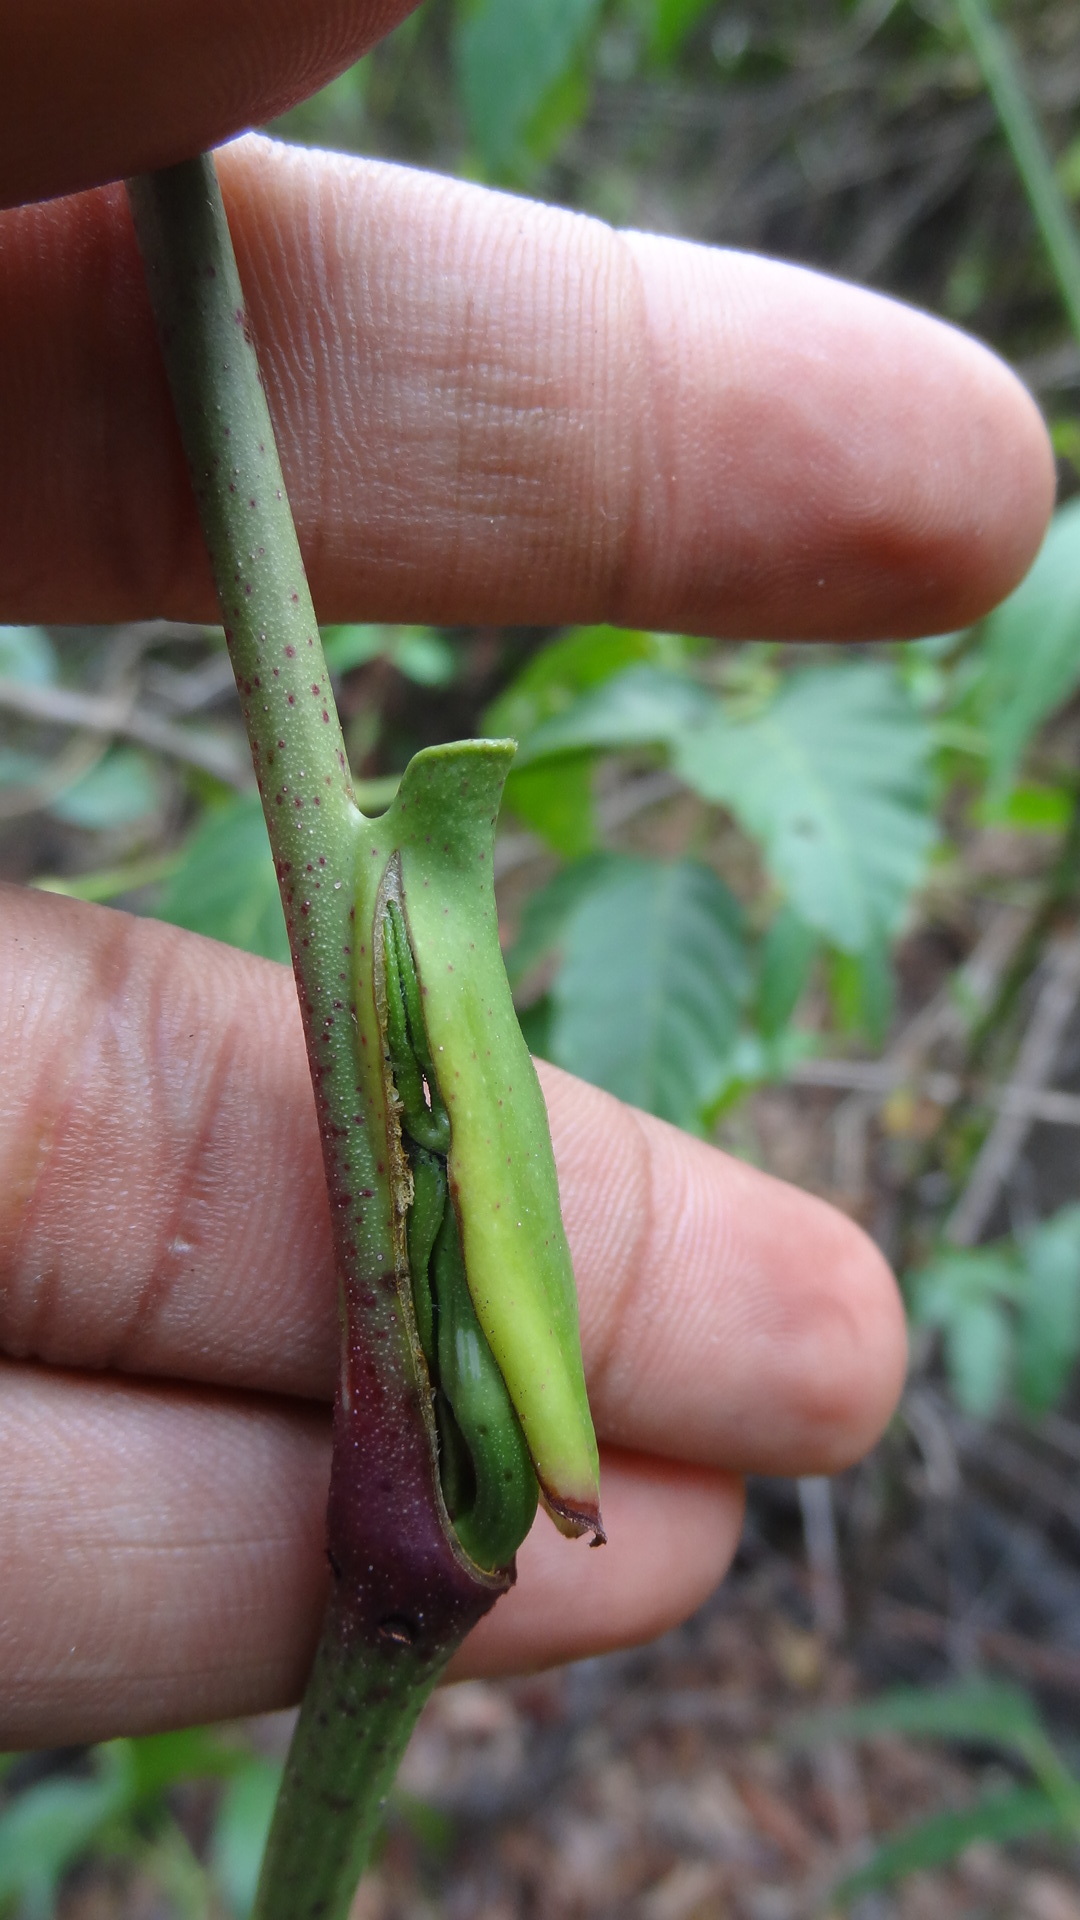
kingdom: Plantae
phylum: Tracheophyta
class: Magnoliopsida
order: Vitales
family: Vitaceae
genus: Leea
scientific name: Leea indica
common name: Bandicoot-berry
